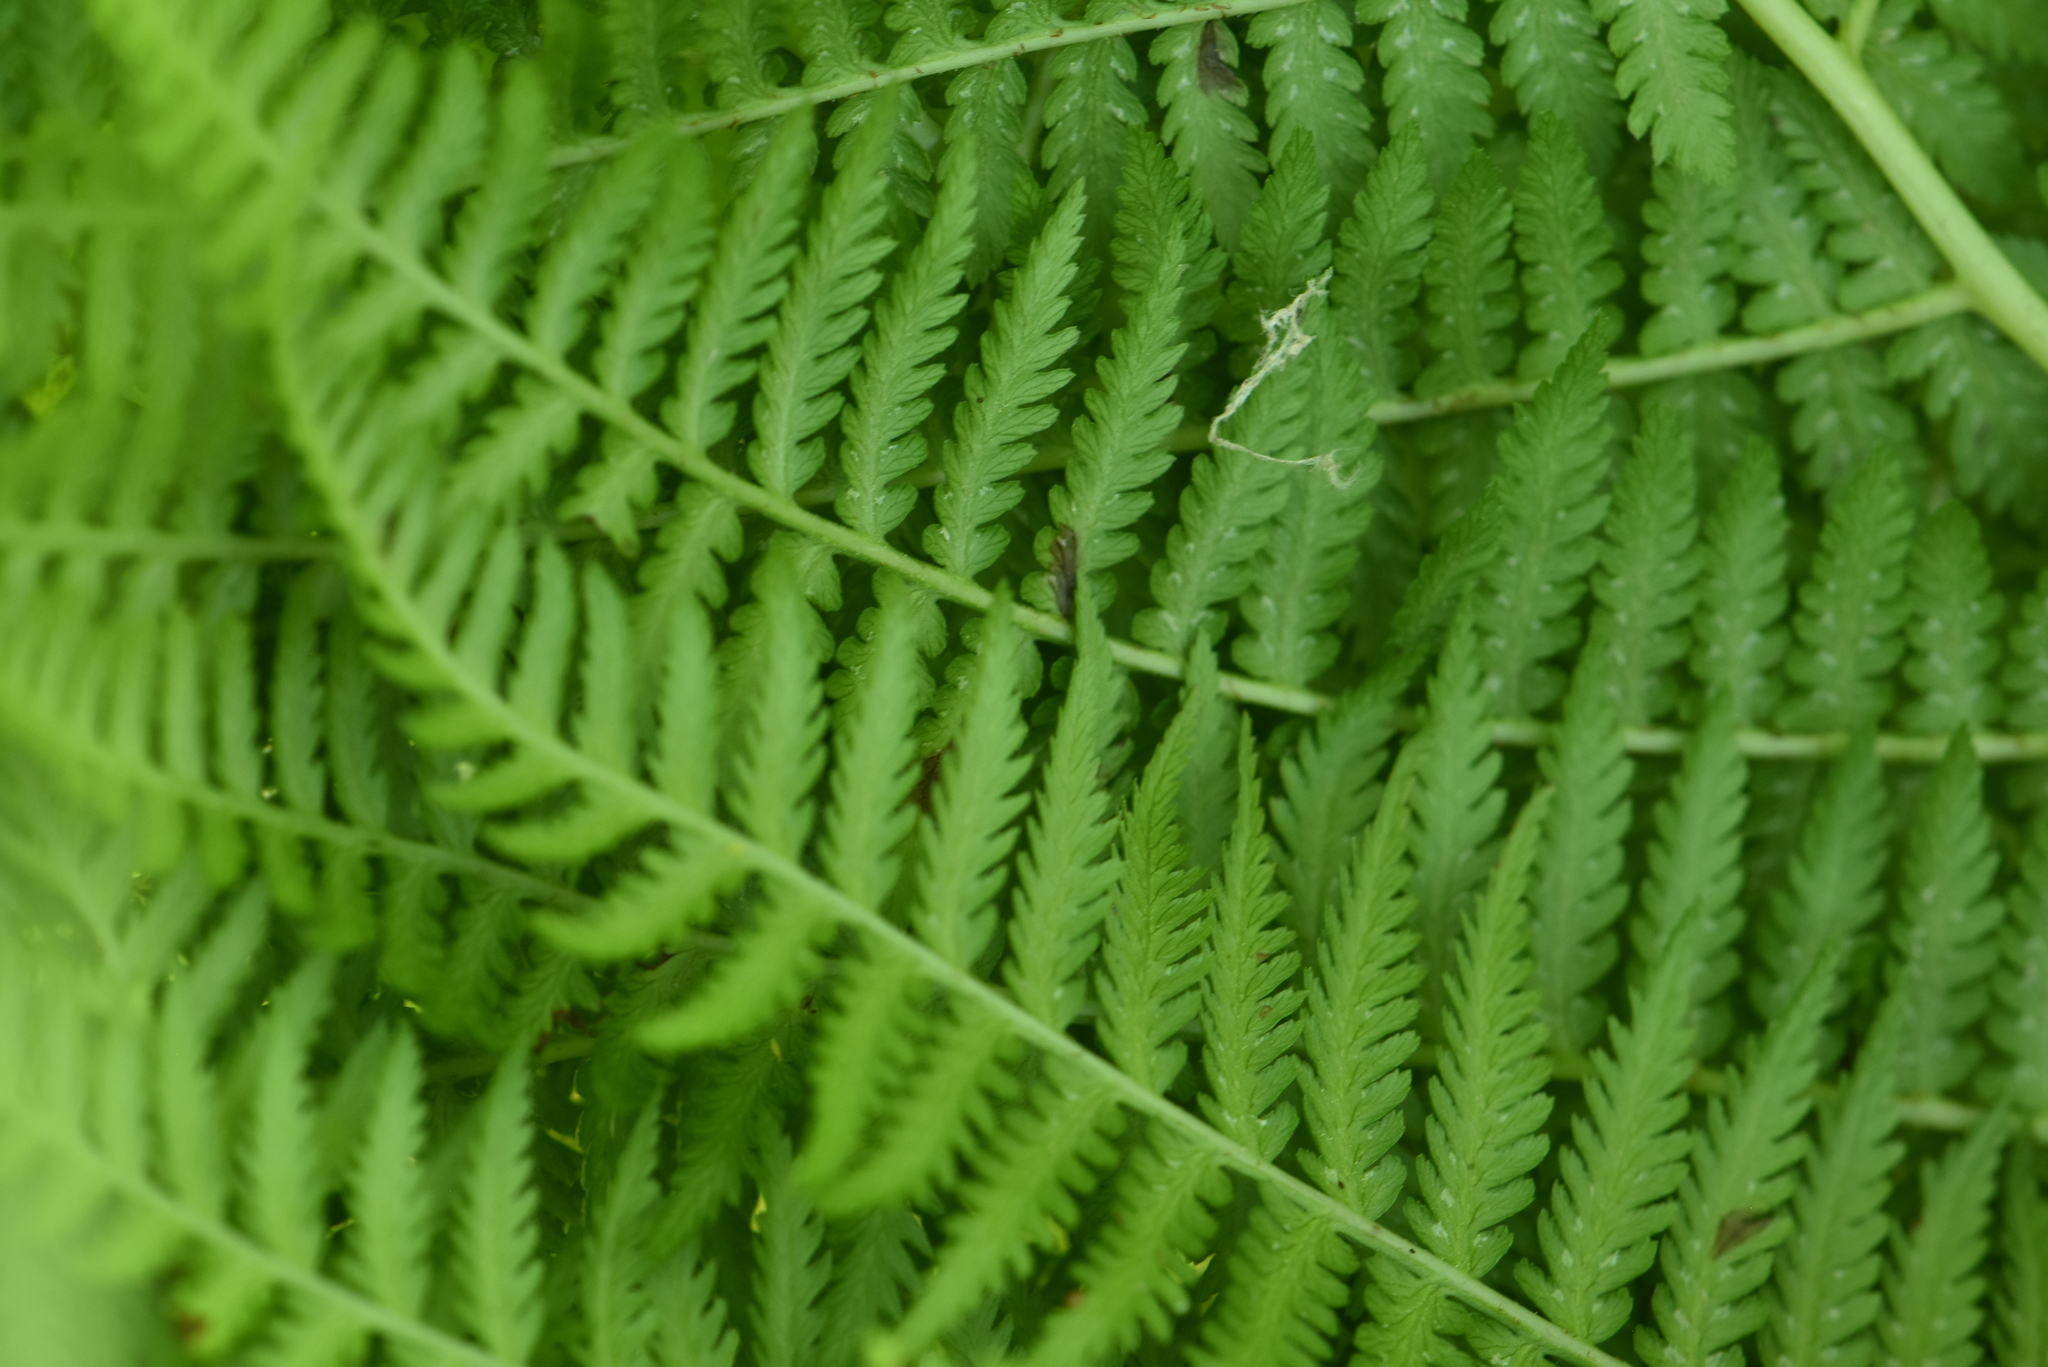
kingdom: Plantae
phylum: Tracheophyta
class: Polypodiopsida
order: Polypodiales
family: Athyriaceae
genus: Athyrium
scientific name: Athyrium filix-femina
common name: Lady fern
